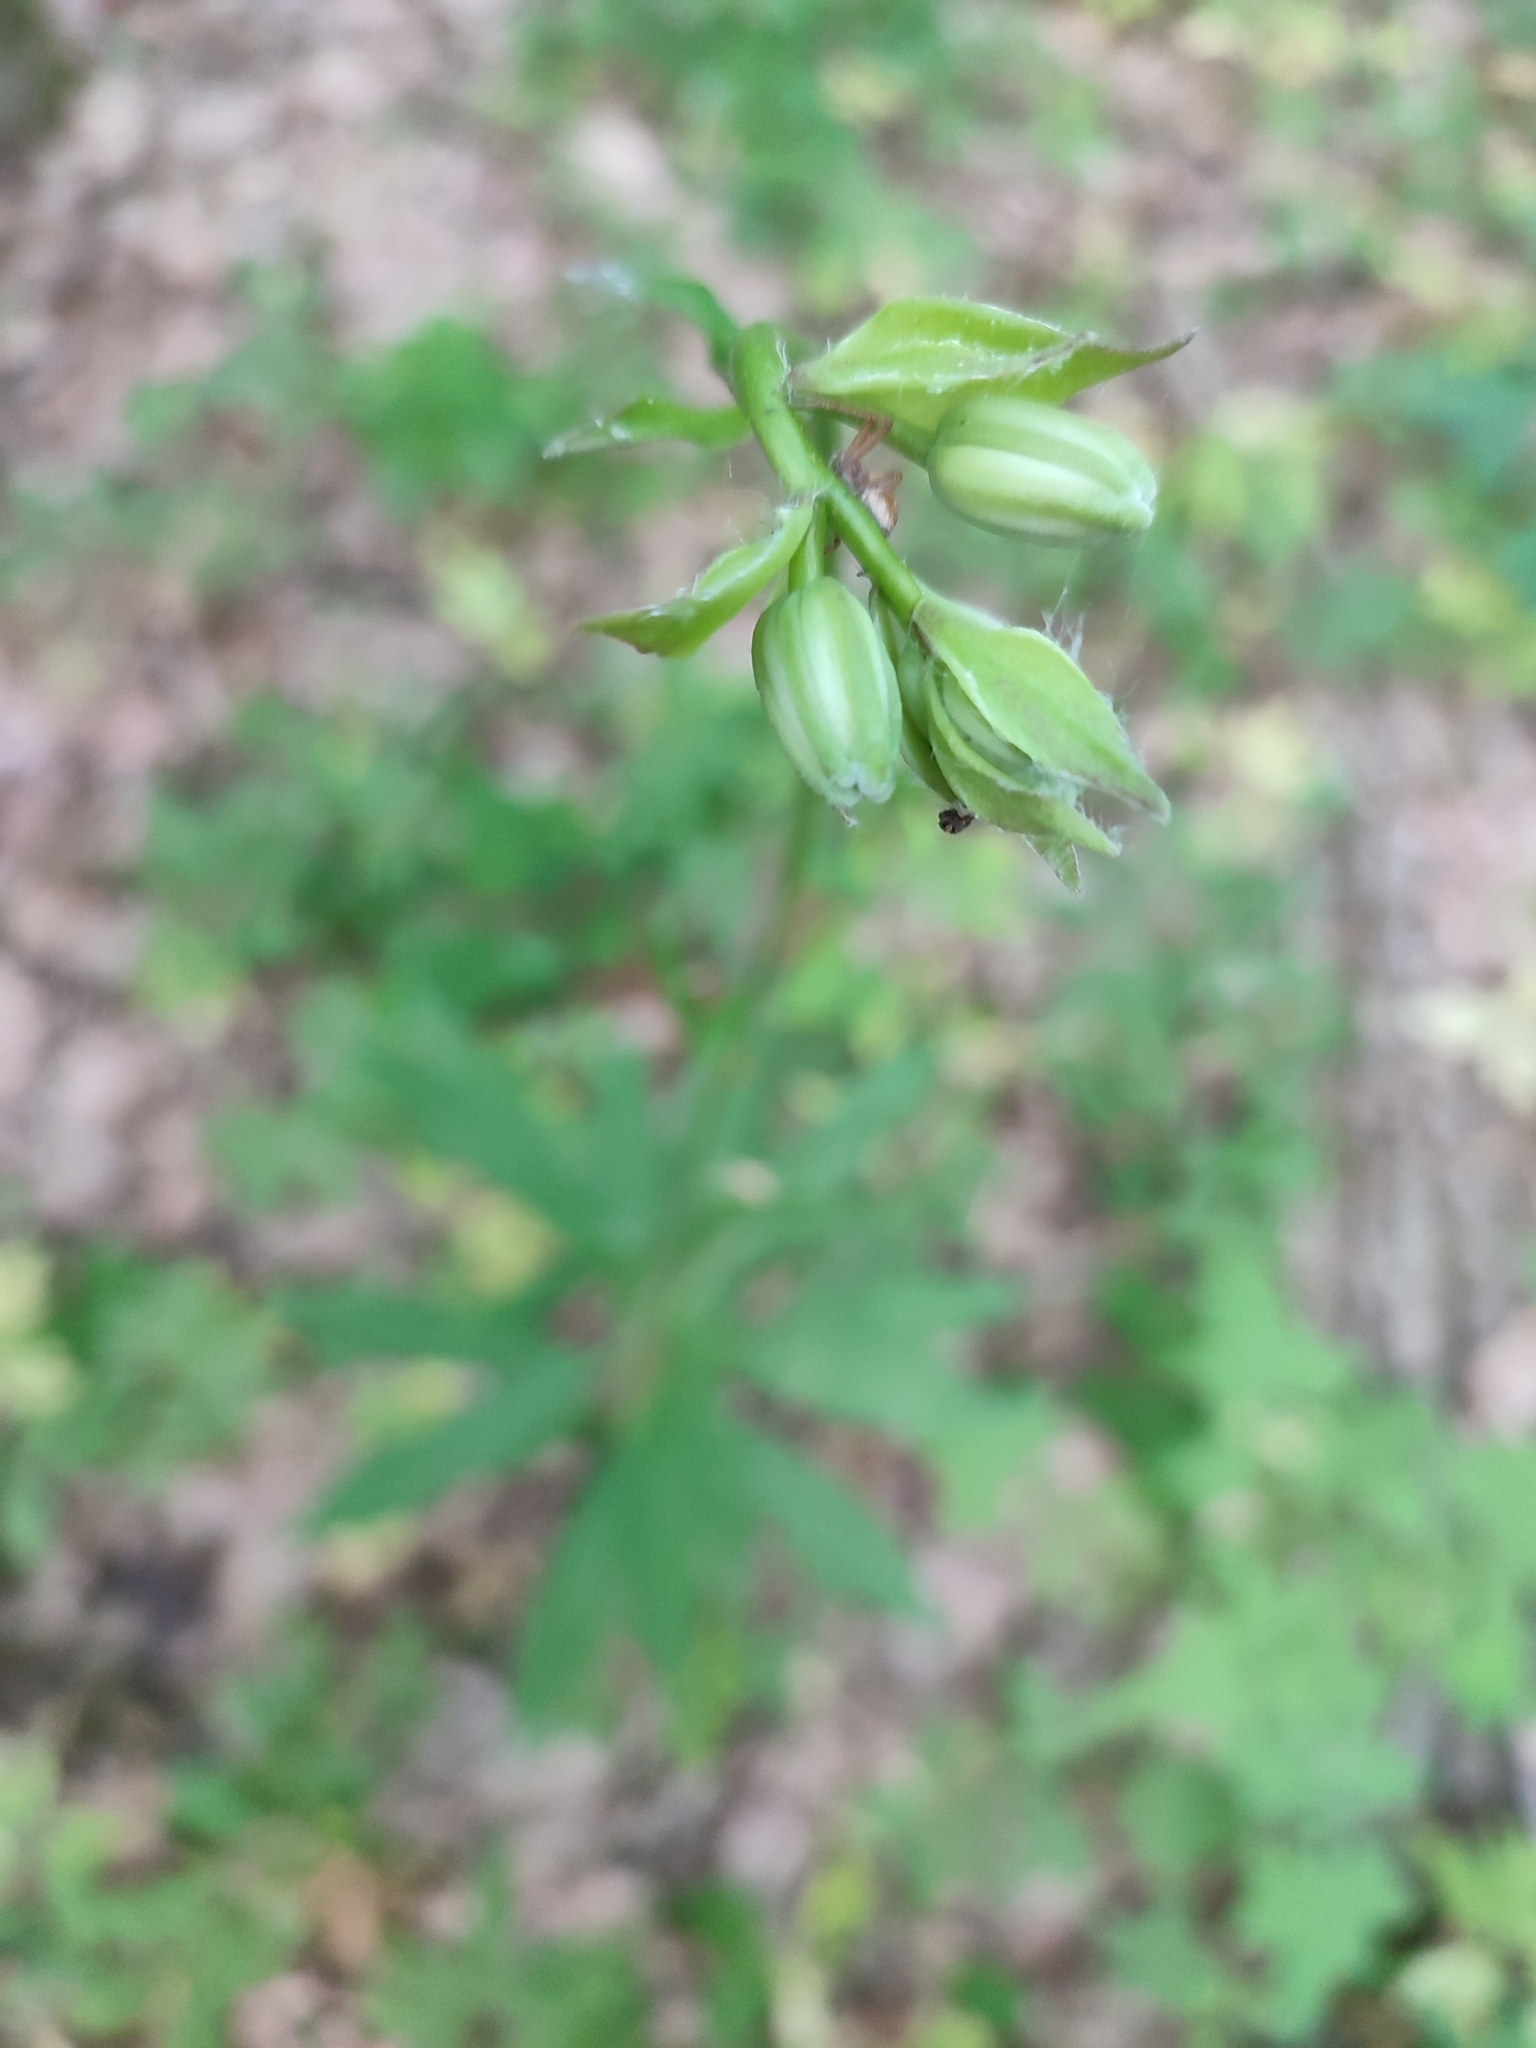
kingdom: Plantae
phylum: Tracheophyta
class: Liliopsida
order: Liliales
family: Liliaceae
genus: Lilium
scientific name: Lilium martagon
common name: Martagon lily
